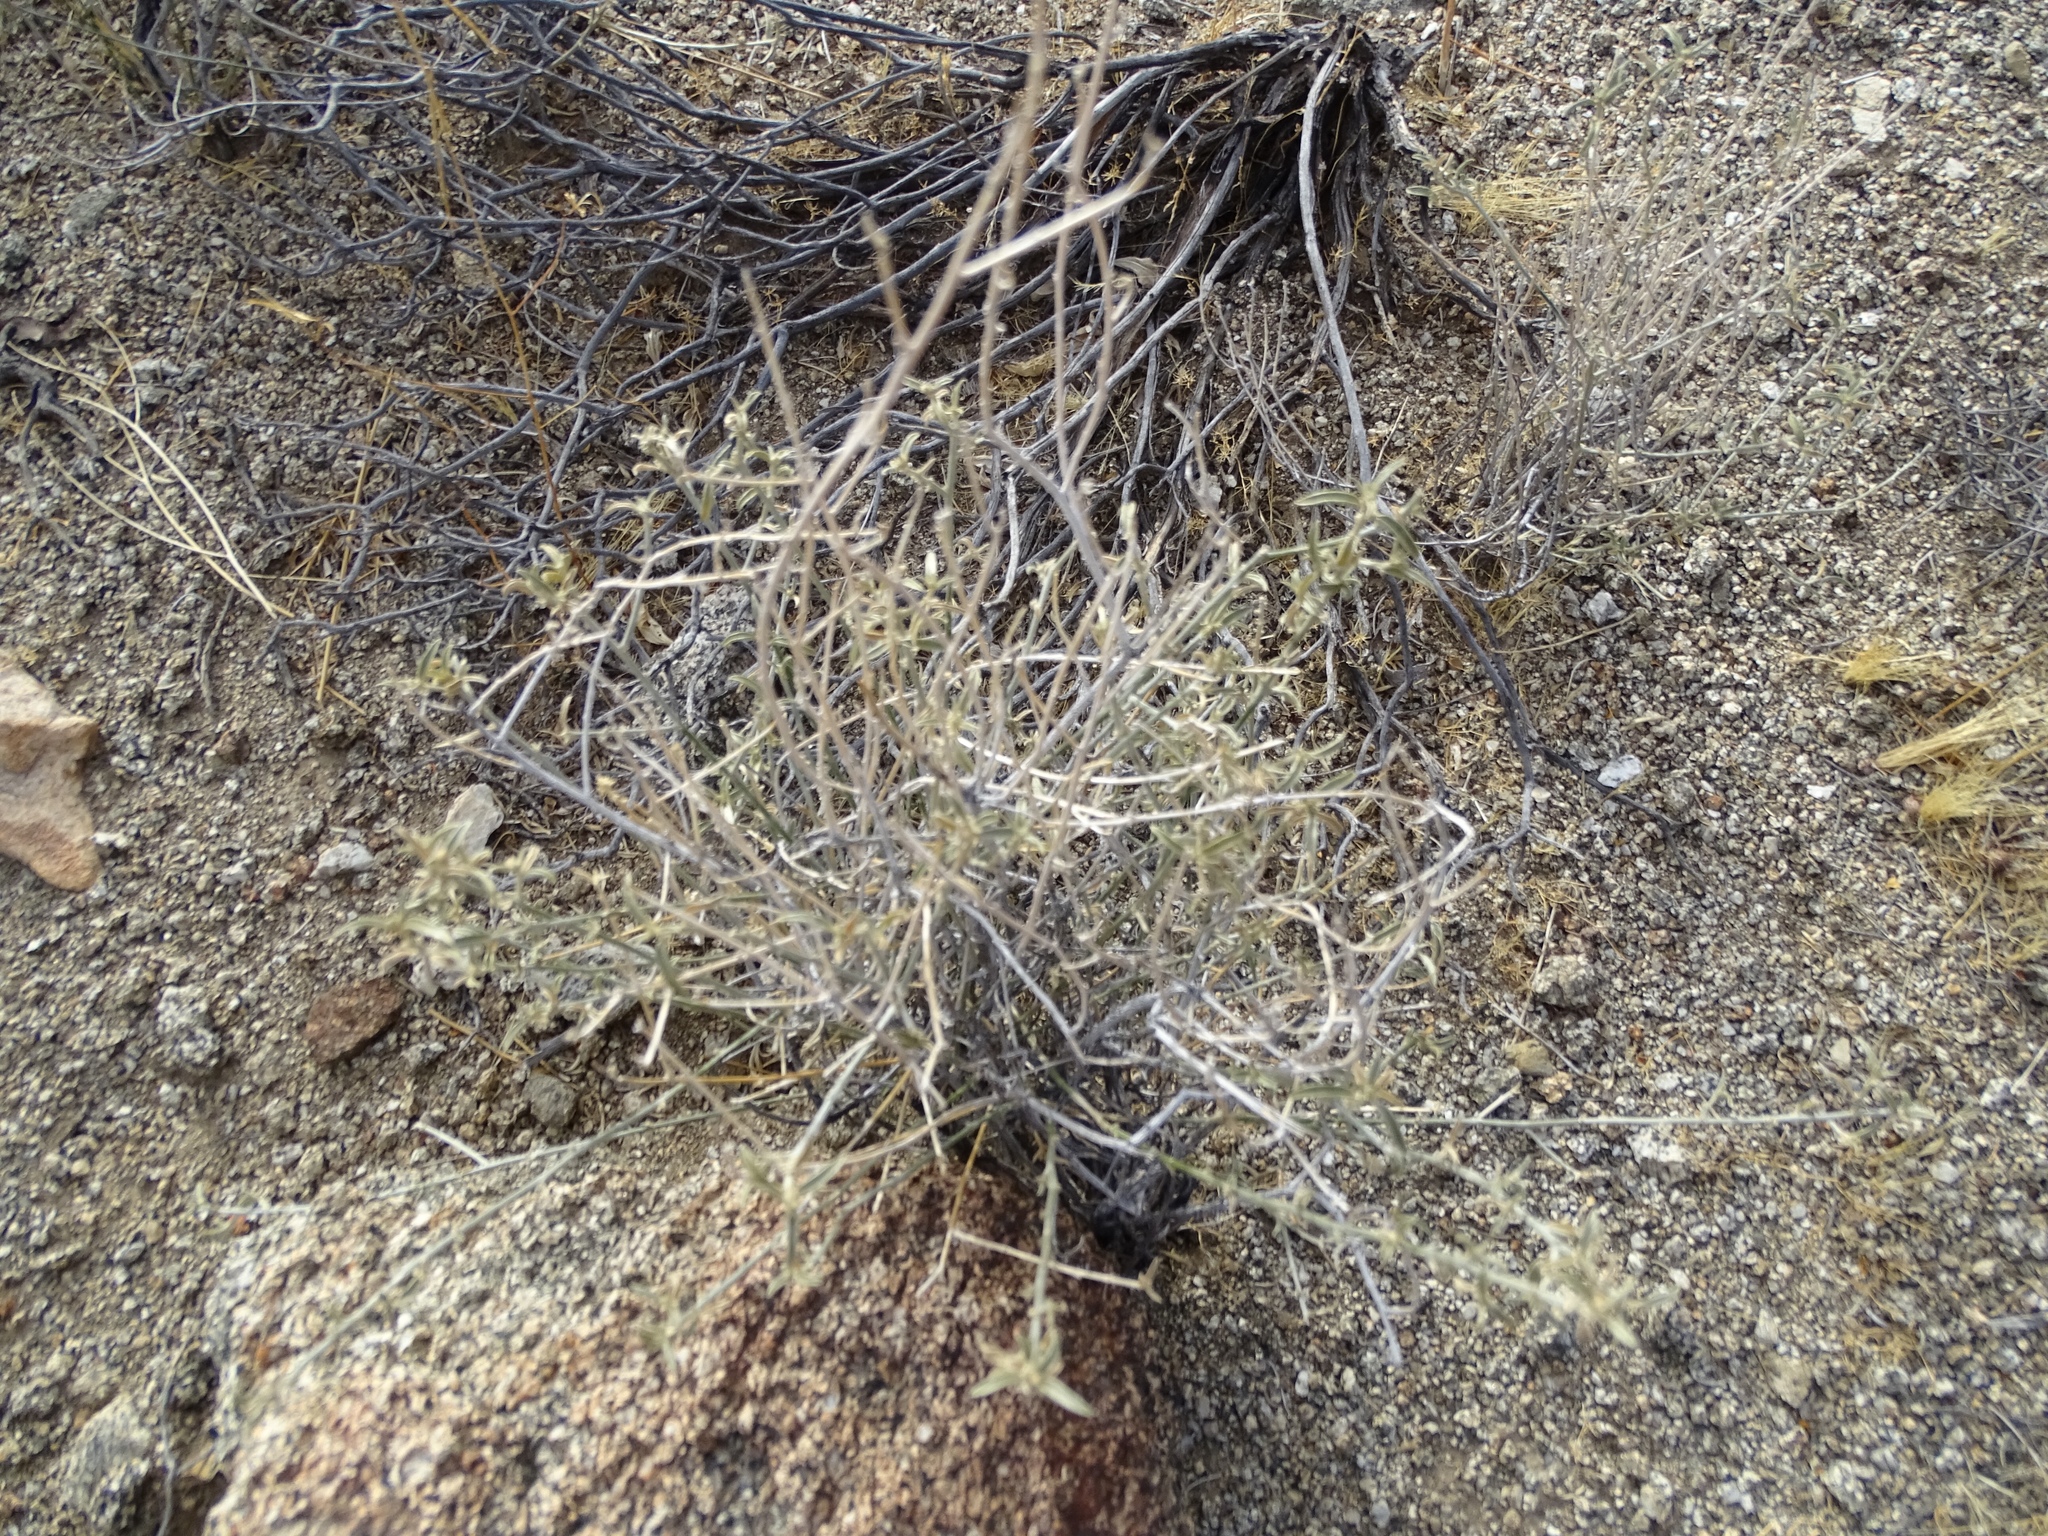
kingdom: Plantae
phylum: Tracheophyta
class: Magnoliopsida
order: Malpighiales
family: Euphorbiaceae
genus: Ditaxis
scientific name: Ditaxis lanceolata
